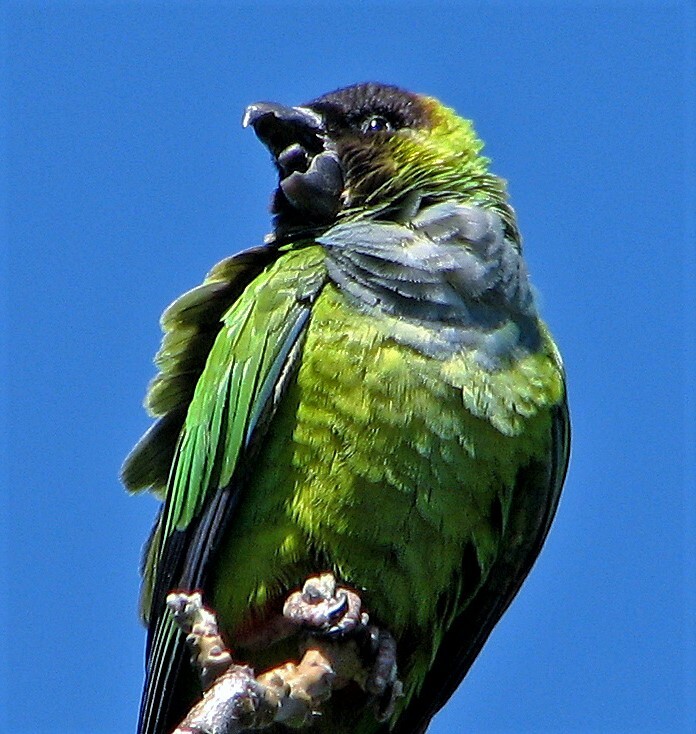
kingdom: Animalia
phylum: Chordata
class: Aves
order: Psittaciformes
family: Psittacidae
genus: Nandayus
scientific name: Nandayus nenday
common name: Nanday parakeet
